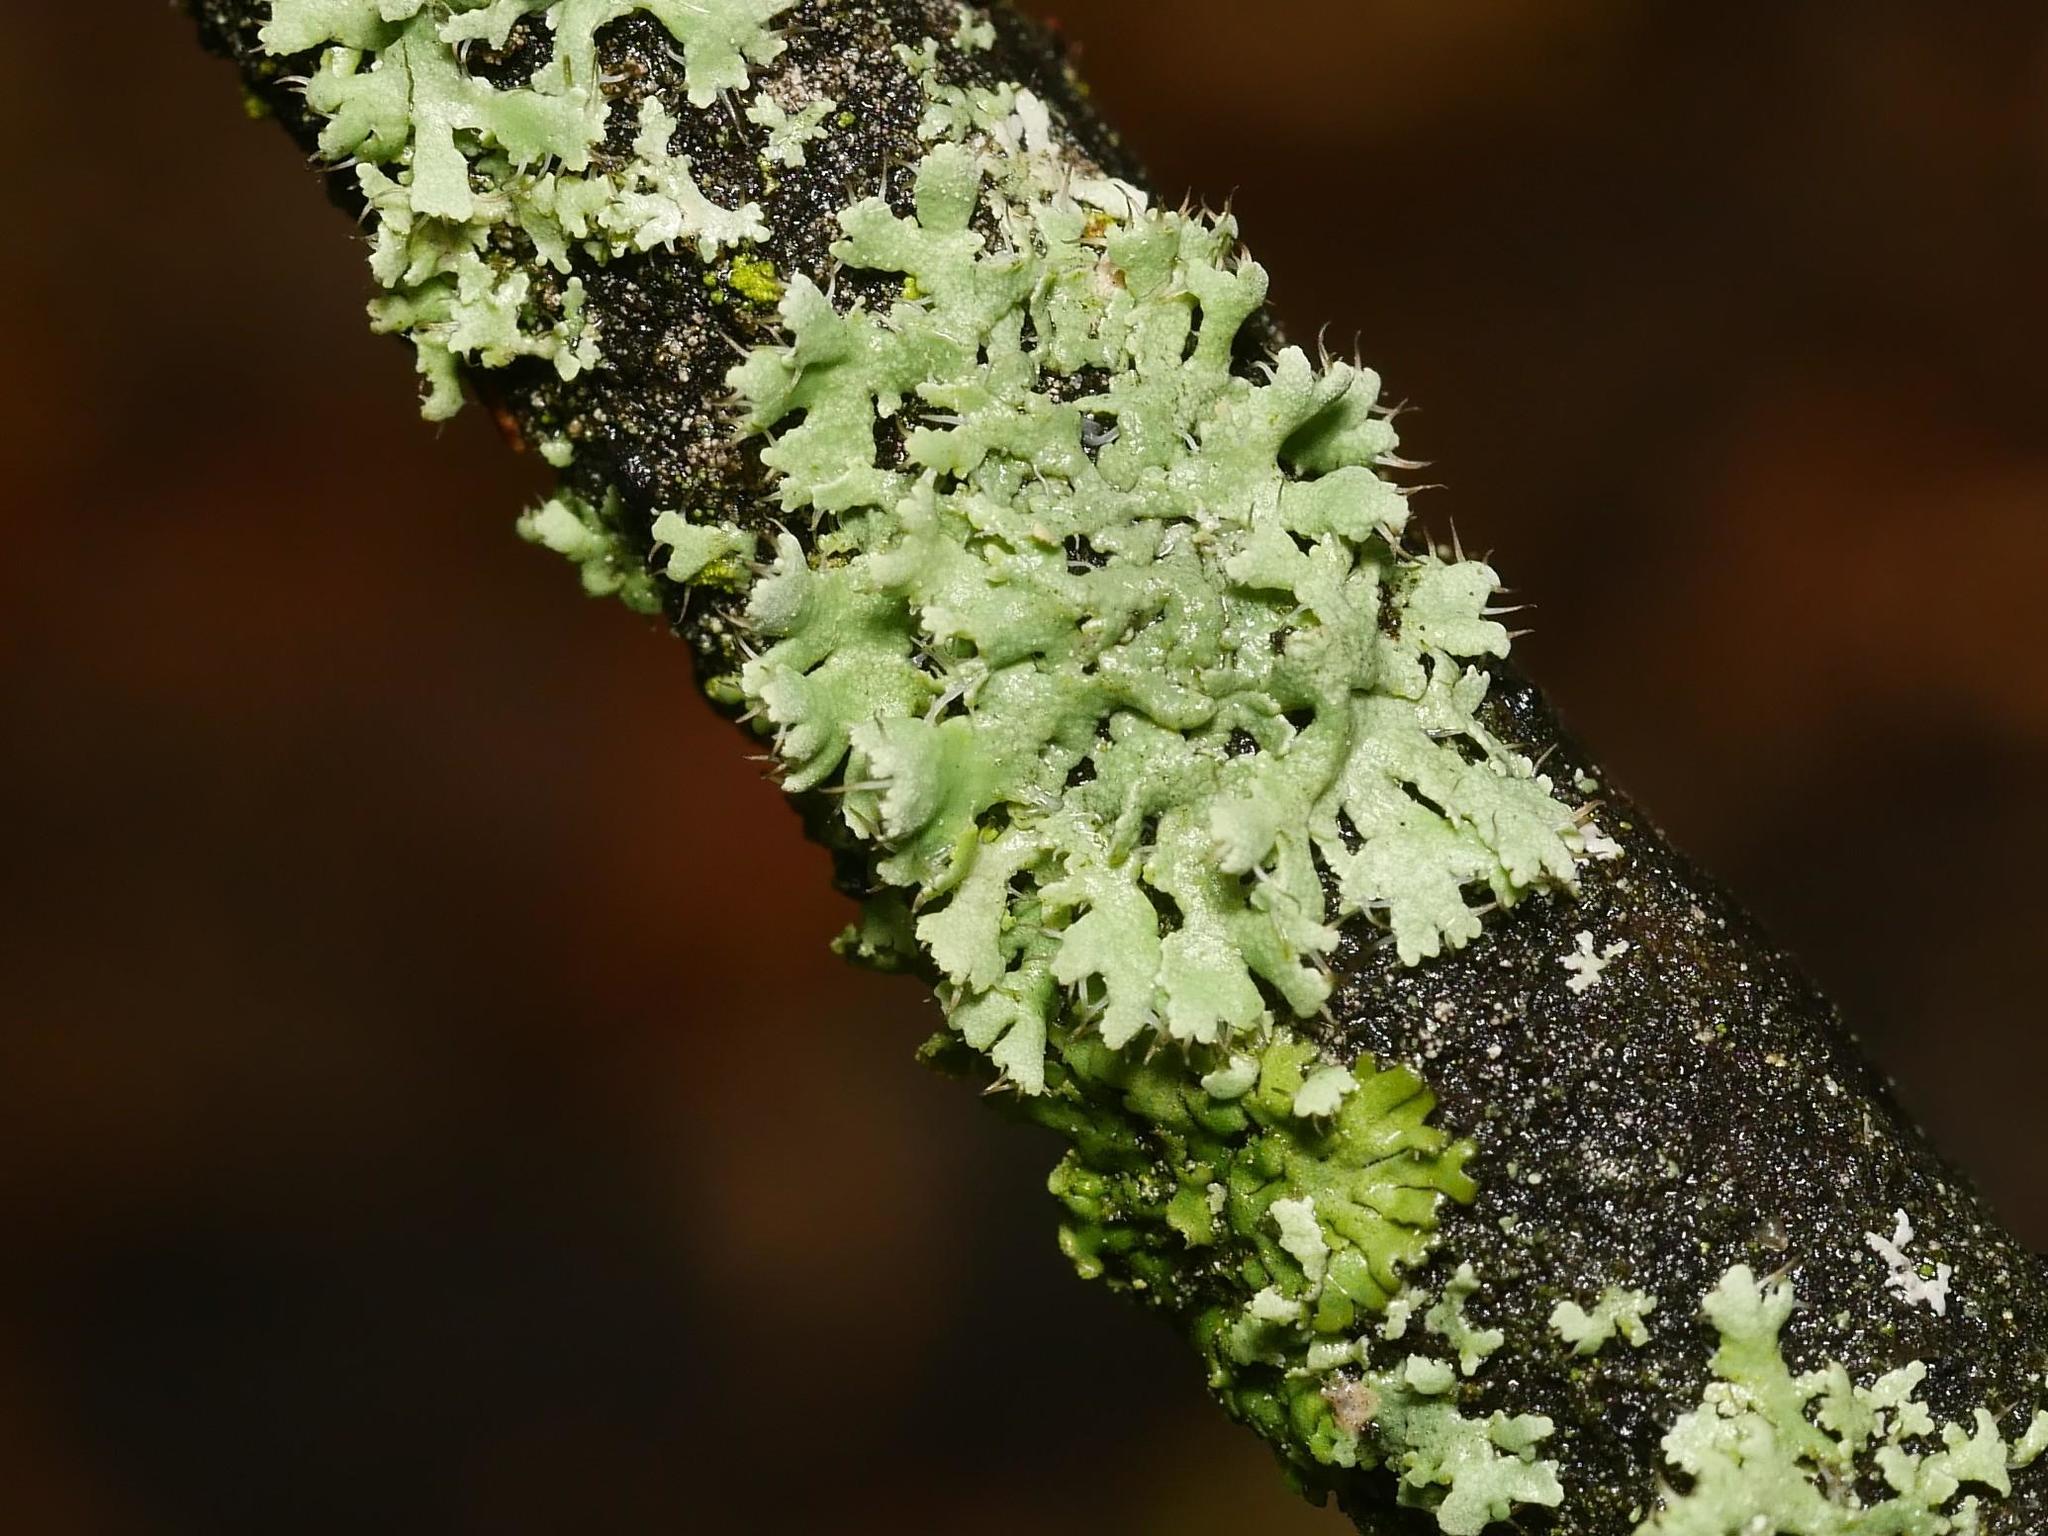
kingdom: Fungi
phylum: Ascomycota
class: Lecanoromycetes
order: Caliciales
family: Physciaceae
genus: Physcia
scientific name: Physcia adscendens
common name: Hooded rosette lichen
